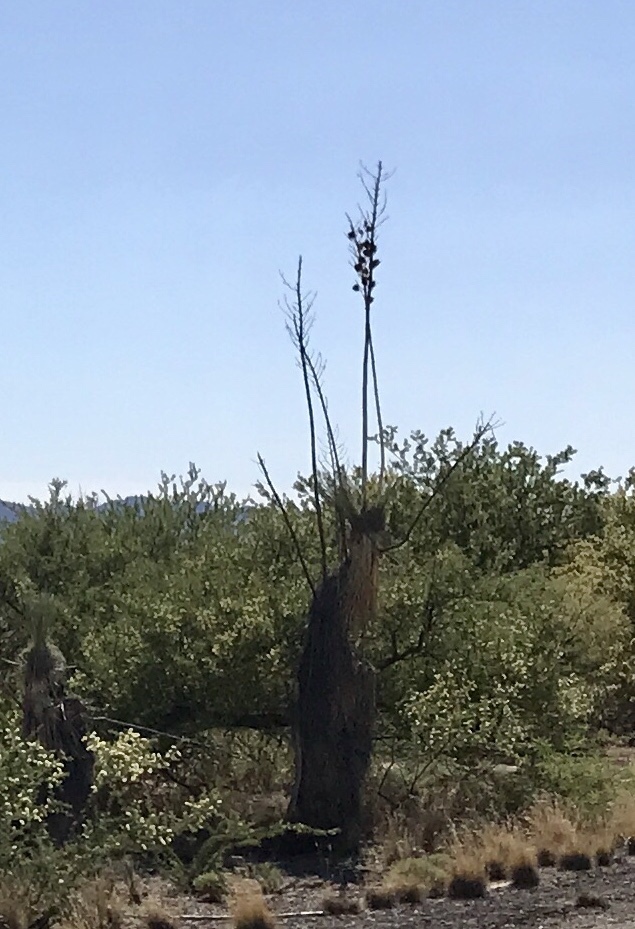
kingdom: Plantae
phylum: Tracheophyta
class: Liliopsida
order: Asparagales
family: Asparagaceae
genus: Yucca
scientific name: Yucca elata
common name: Palmella
